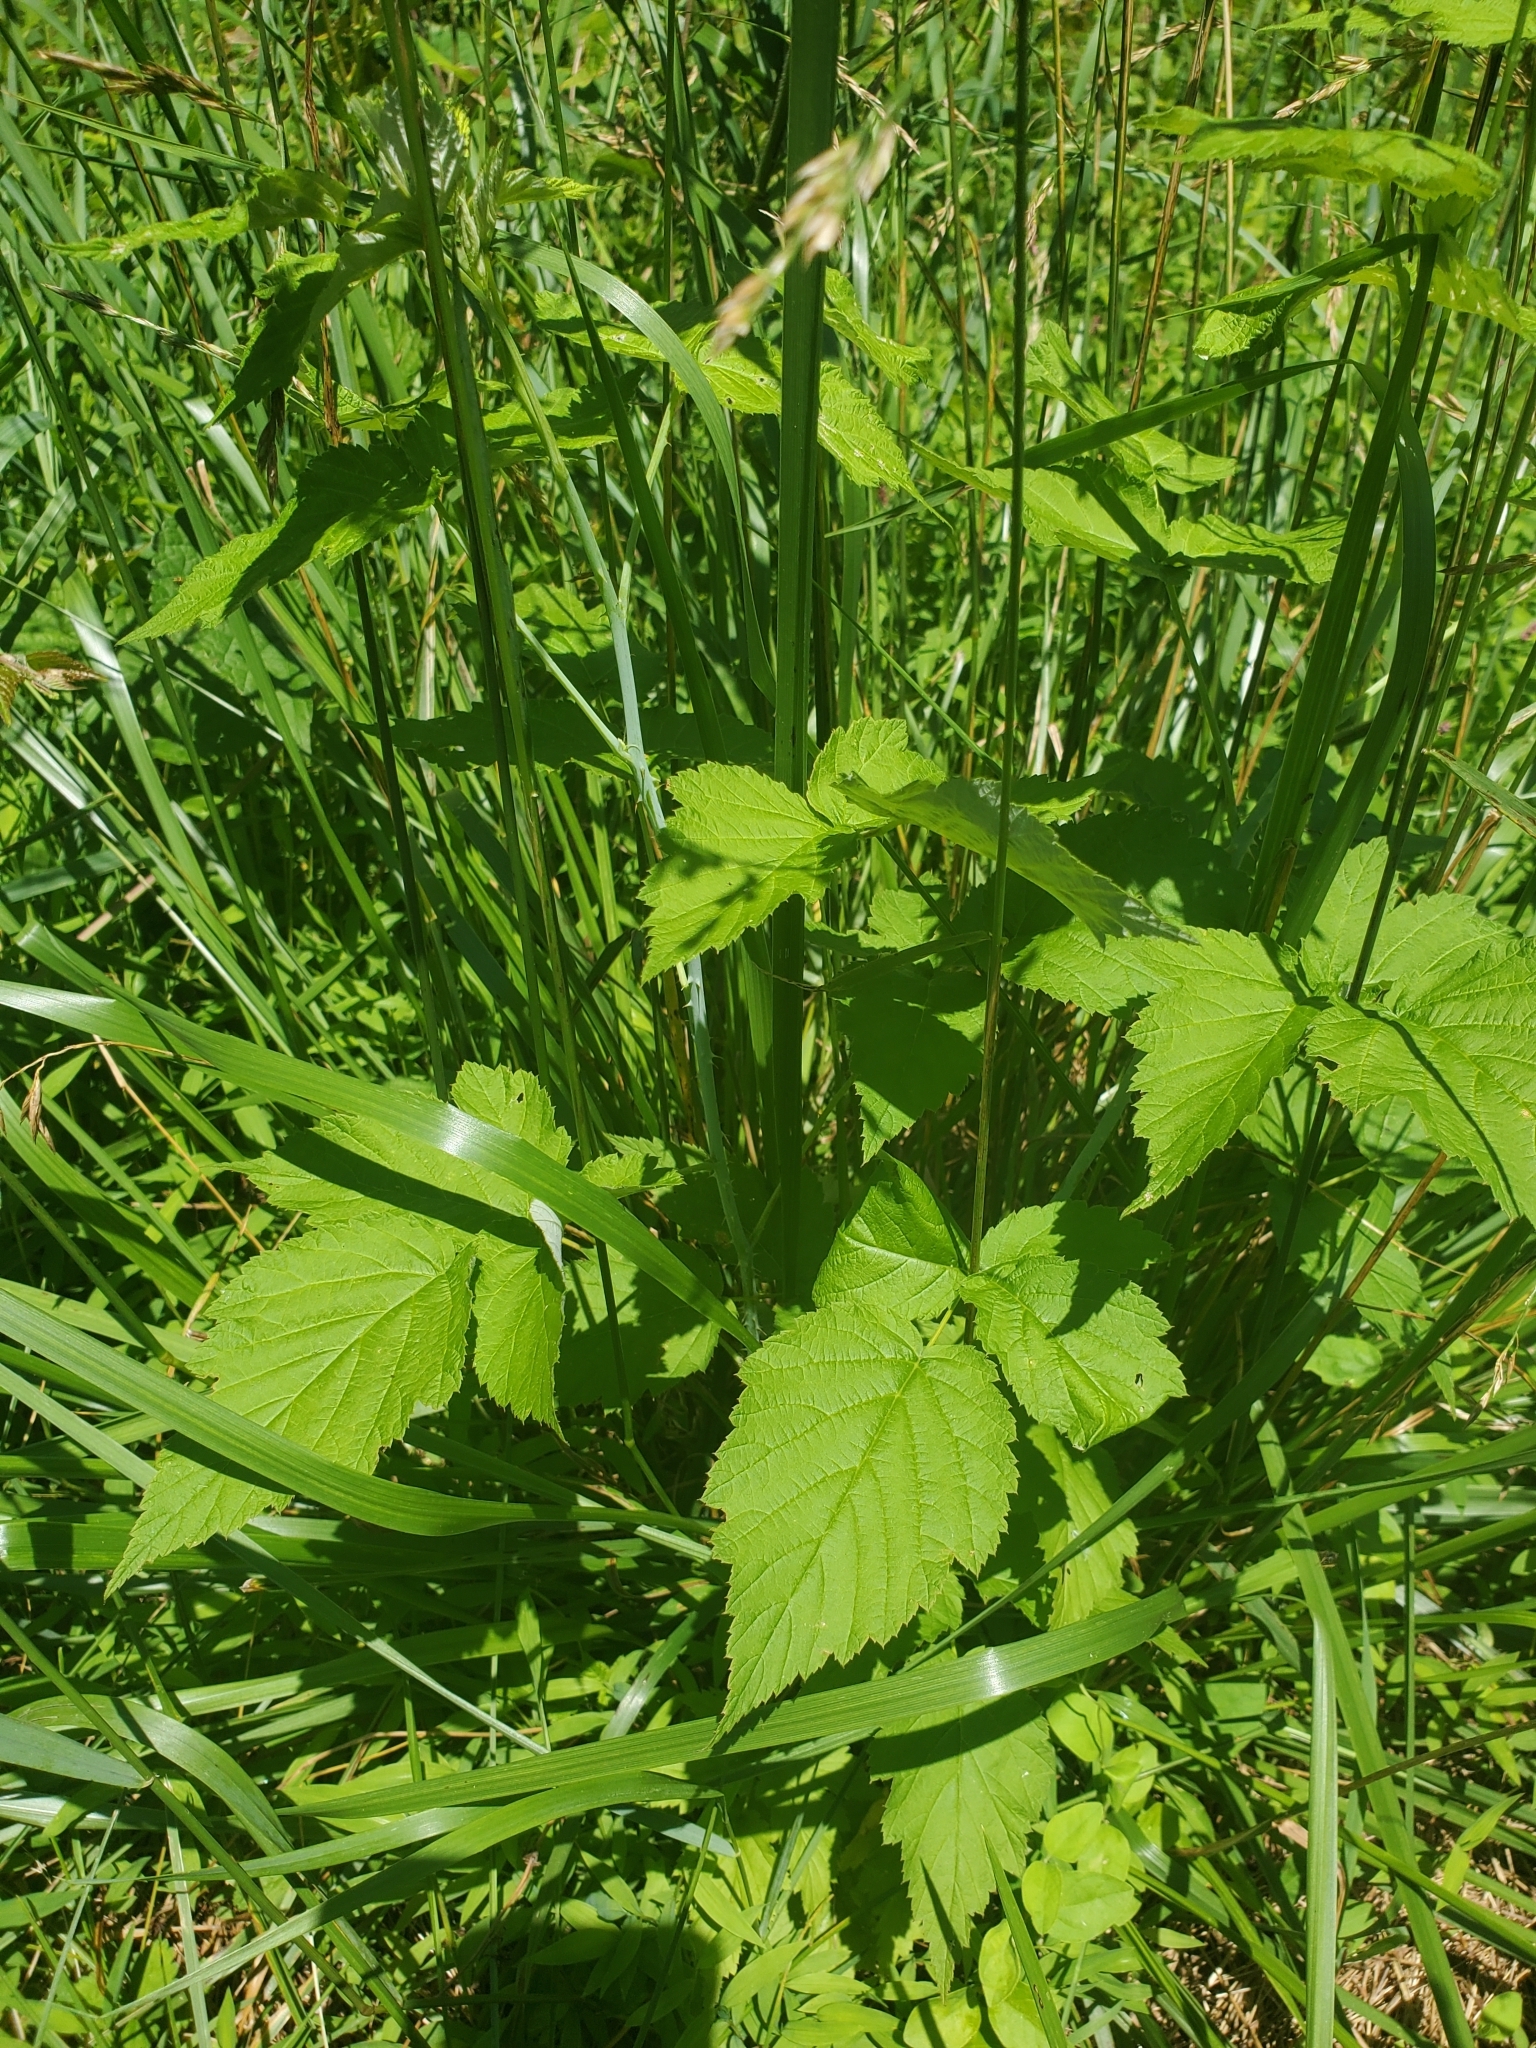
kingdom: Plantae
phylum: Tracheophyta
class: Magnoliopsida
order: Rosales
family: Rosaceae
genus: Rubus
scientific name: Rubus occidentalis
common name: Black raspberry
